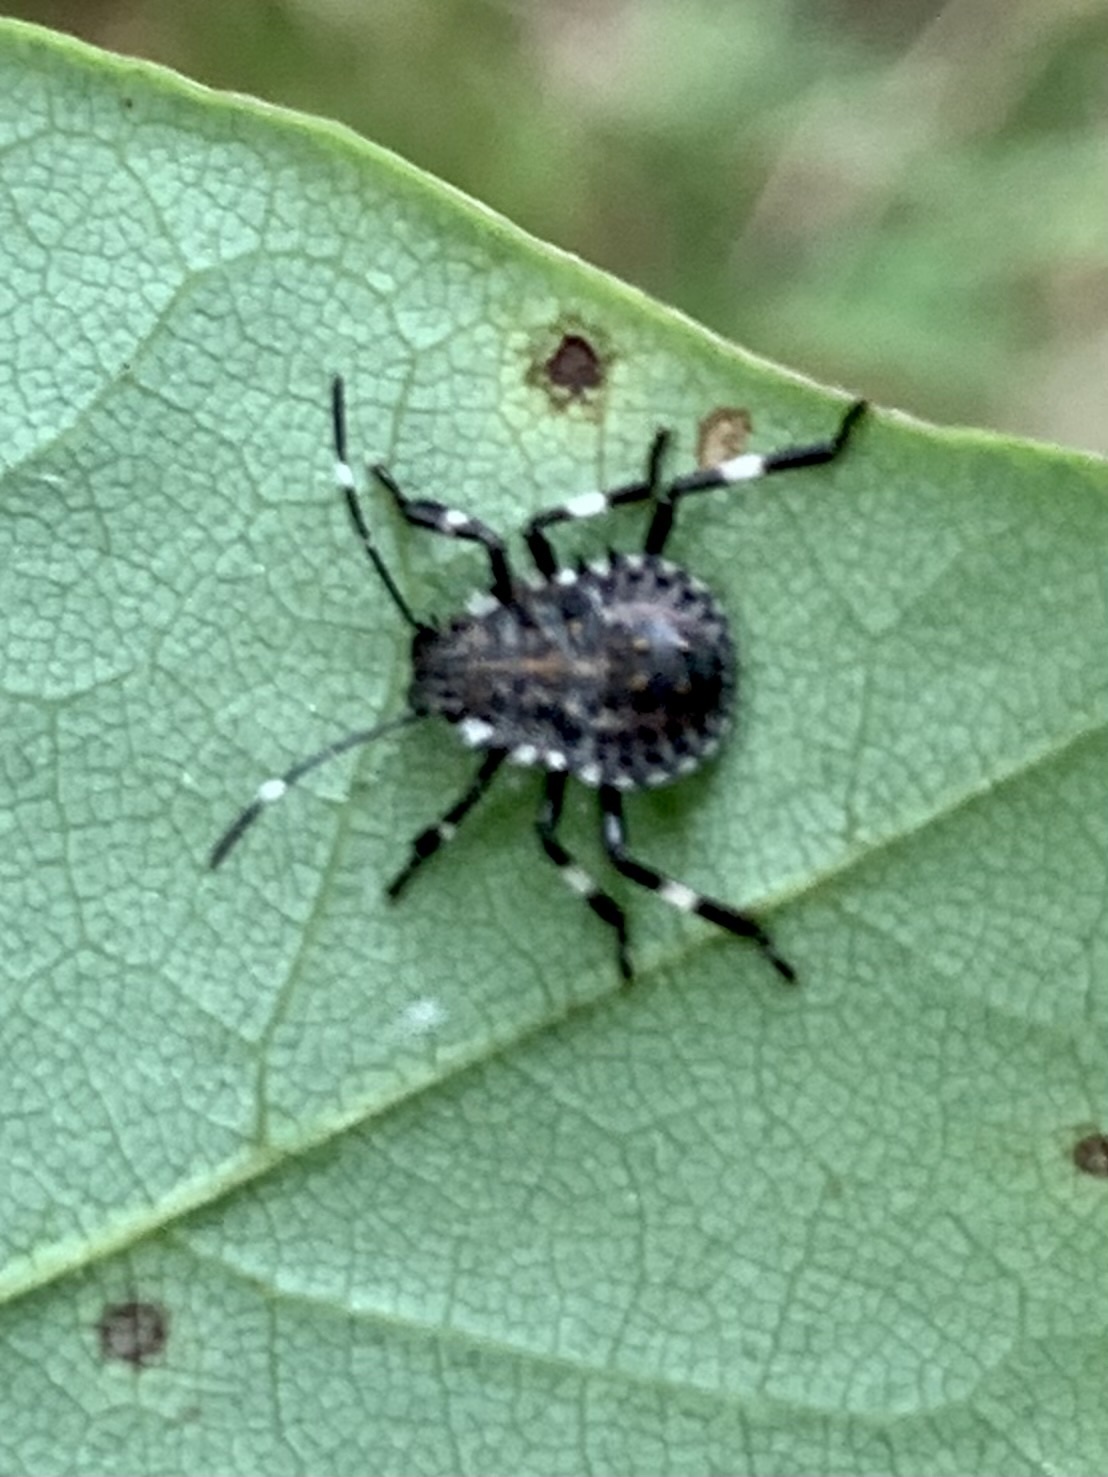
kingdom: Animalia
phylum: Arthropoda
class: Insecta
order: Hemiptera
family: Pentatomidae
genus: Halyomorpha
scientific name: Halyomorpha halys
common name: Brown marmorated stink bug
